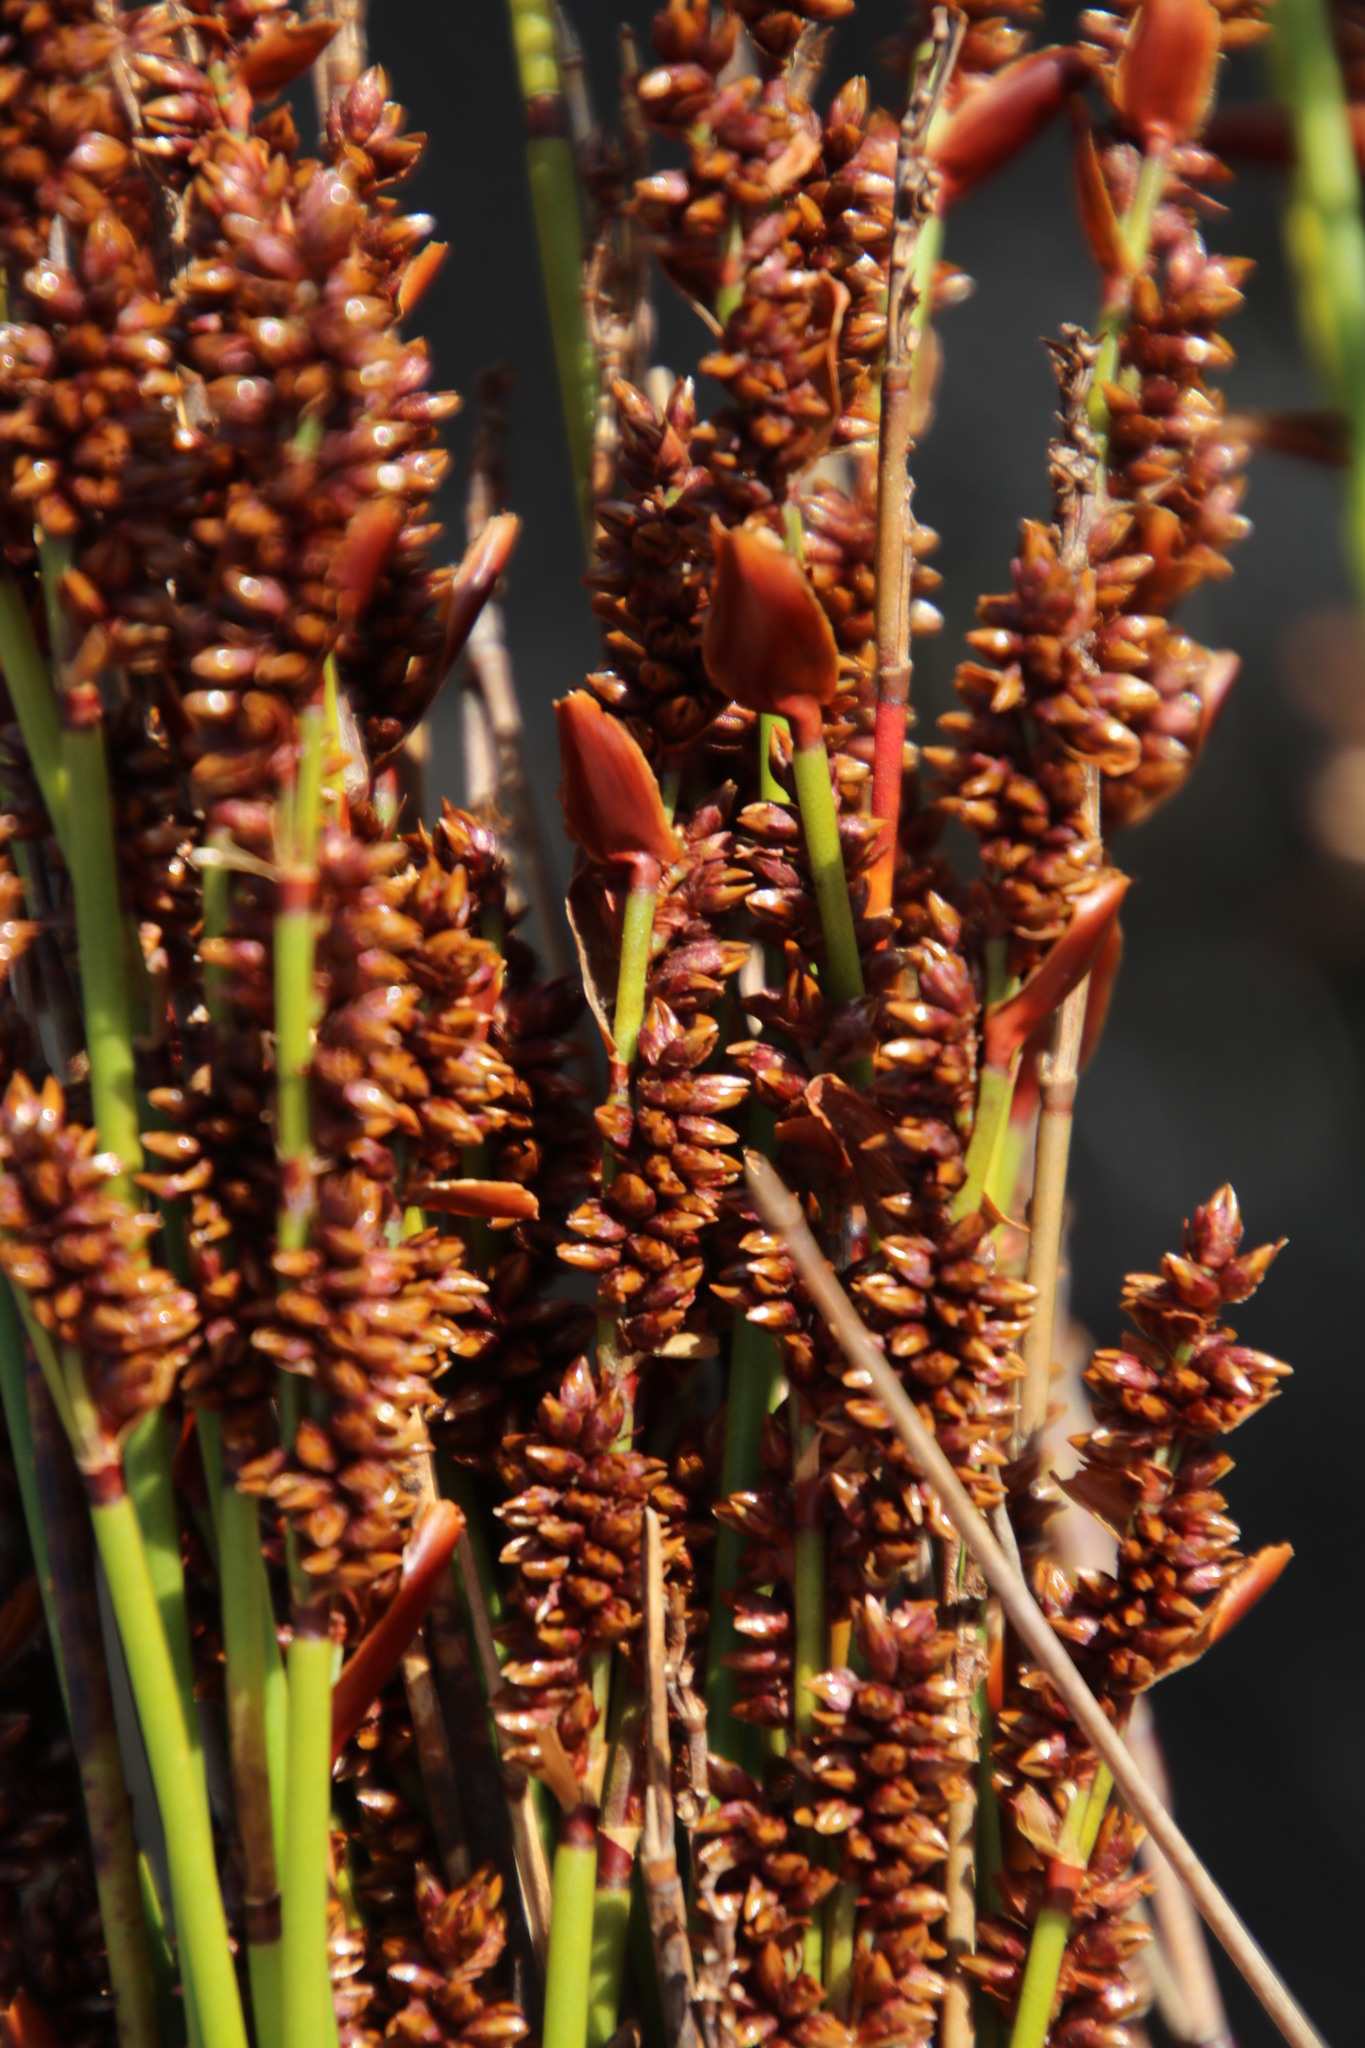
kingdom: Plantae
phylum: Tracheophyta
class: Liliopsida
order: Poales
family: Restionaceae
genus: Elegia
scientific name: Elegia ebracteata
